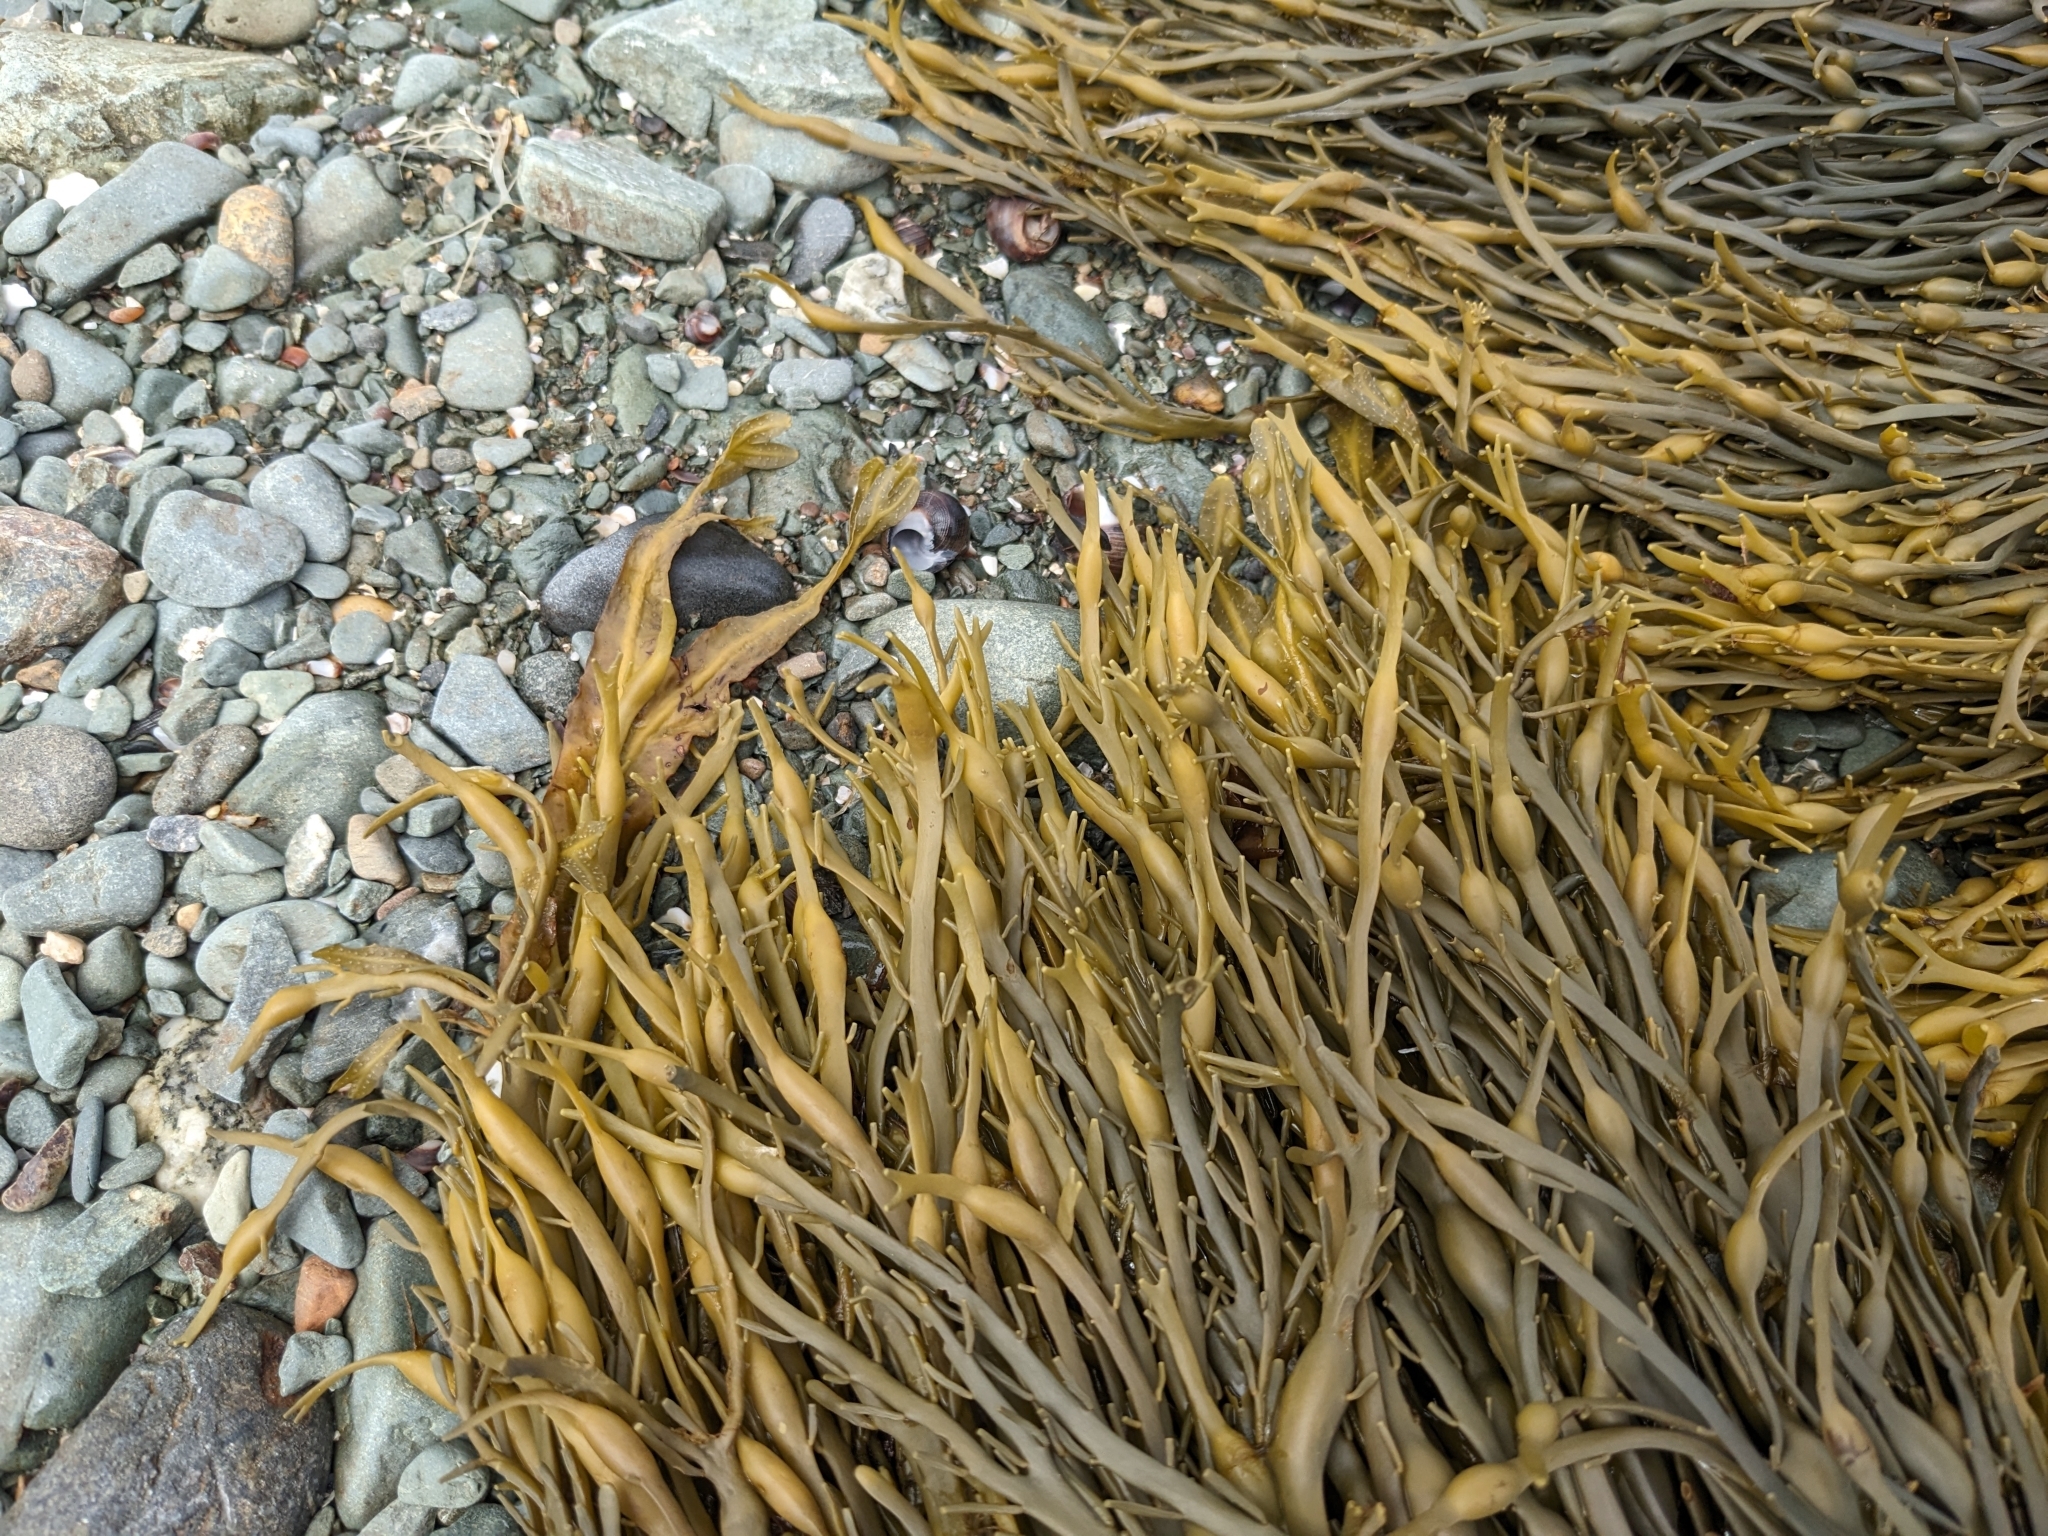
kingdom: Chromista
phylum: Ochrophyta
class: Phaeophyceae
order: Fucales
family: Fucaceae
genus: Ascophyllum
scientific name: Ascophyllum nodosum
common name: Knotted wrack
